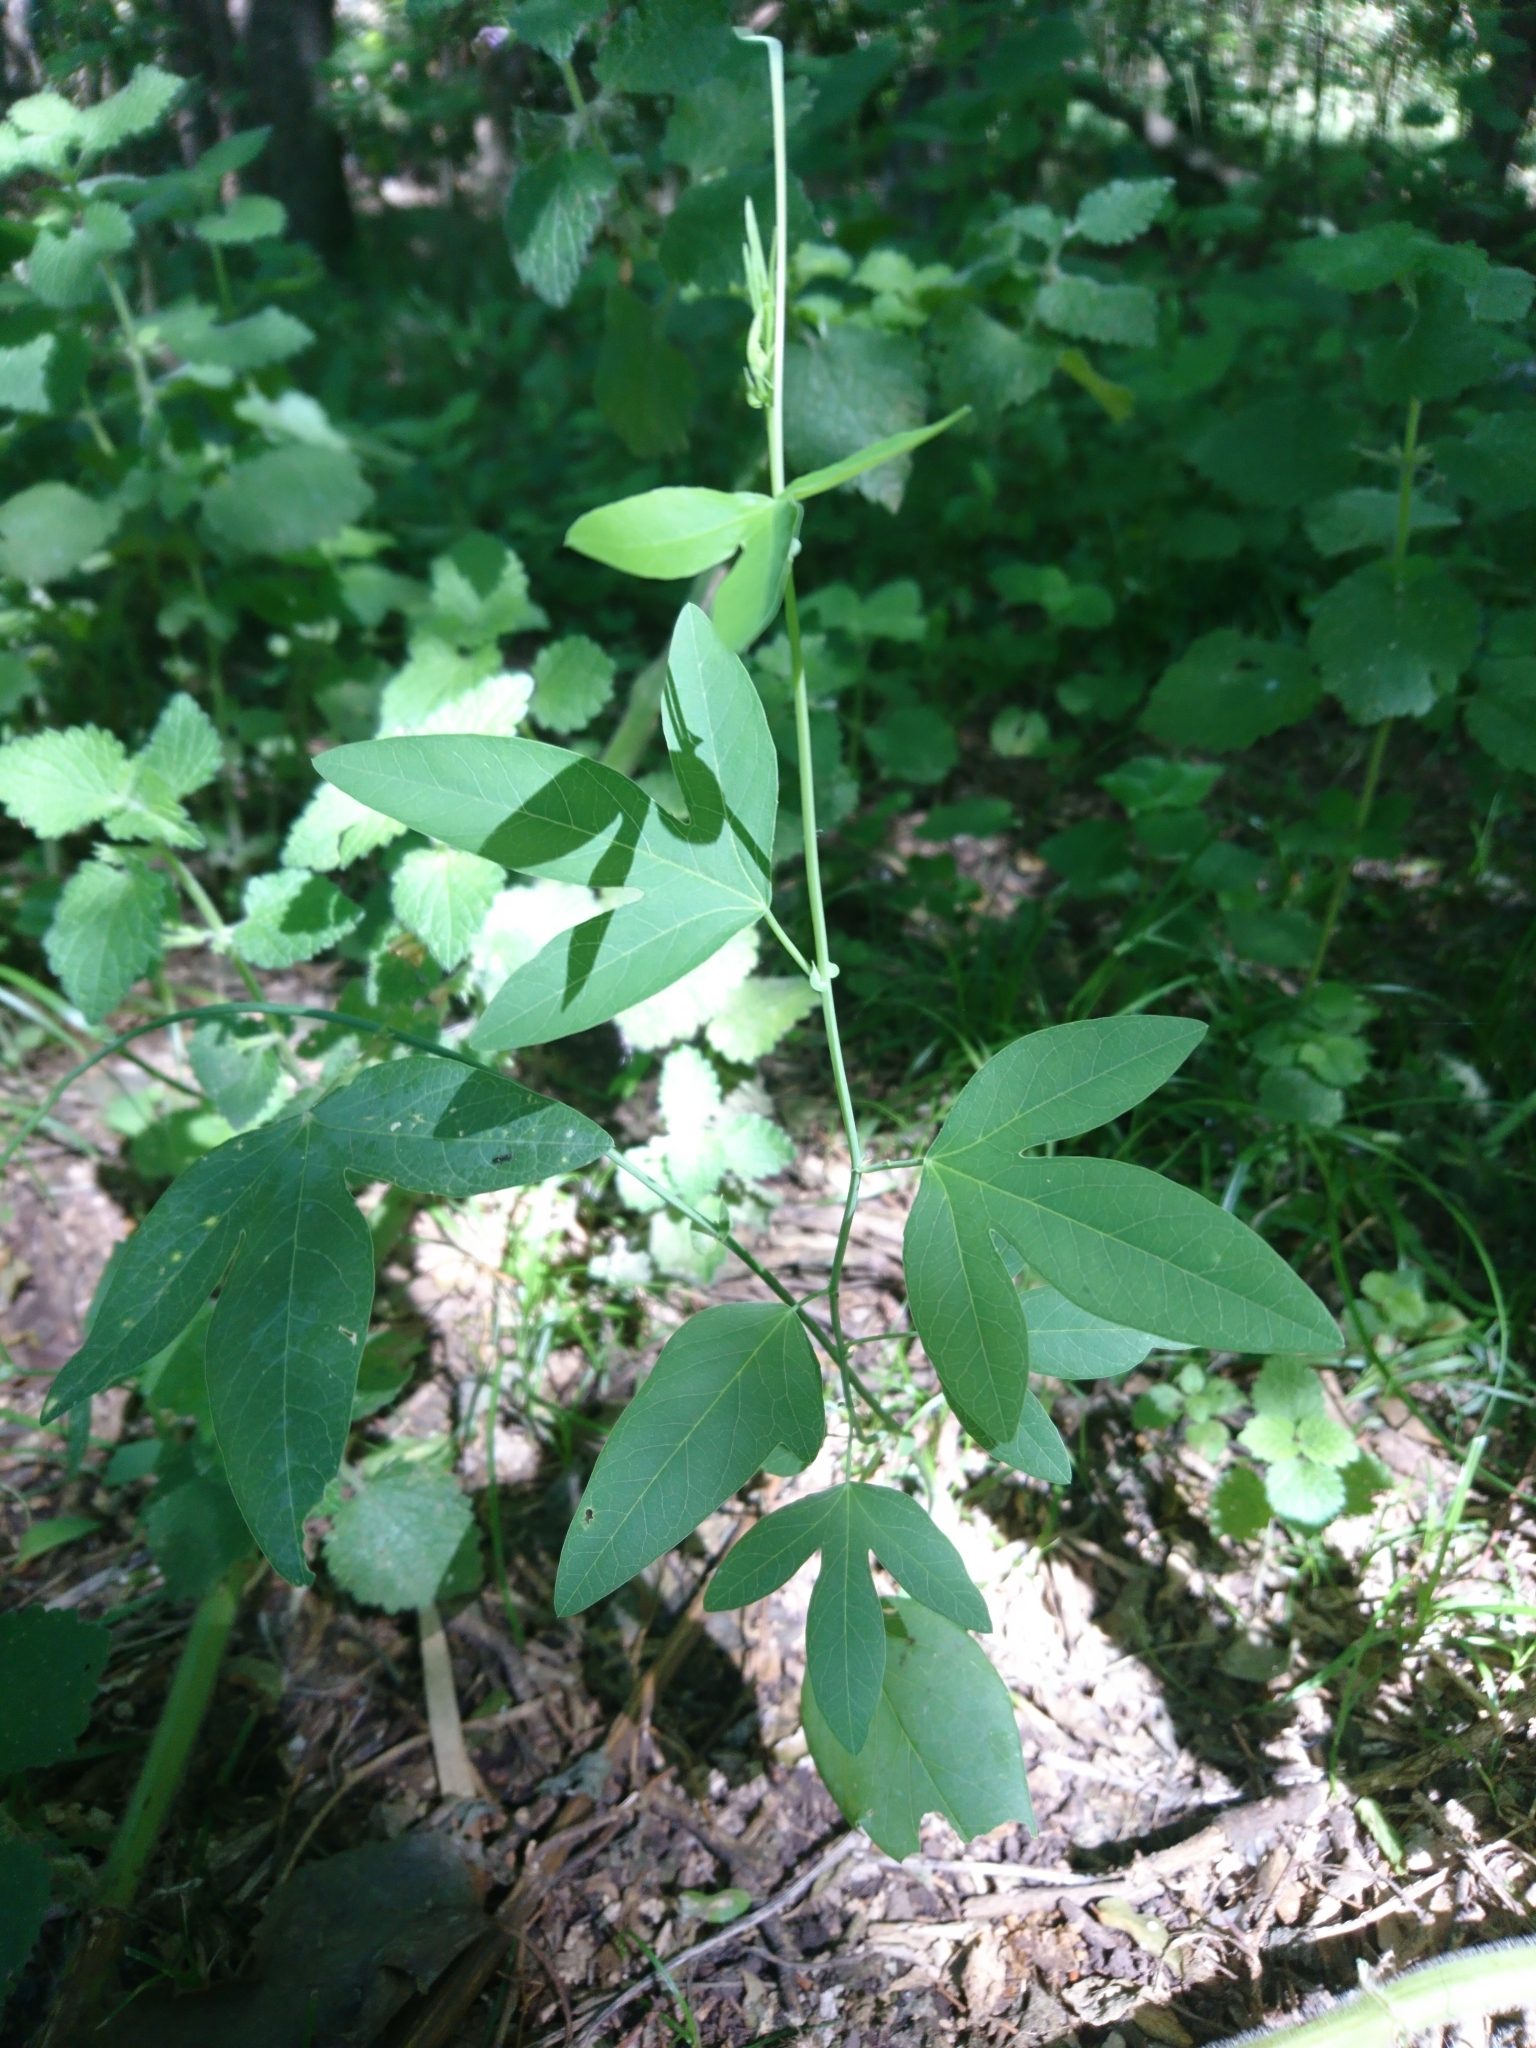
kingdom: Plantae
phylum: Tracheophyta
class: Magnoliopsida
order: Malpighiales
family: Passifloraceae
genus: Passiflora
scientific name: Passiflora caerulea
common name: Blue passionflower
